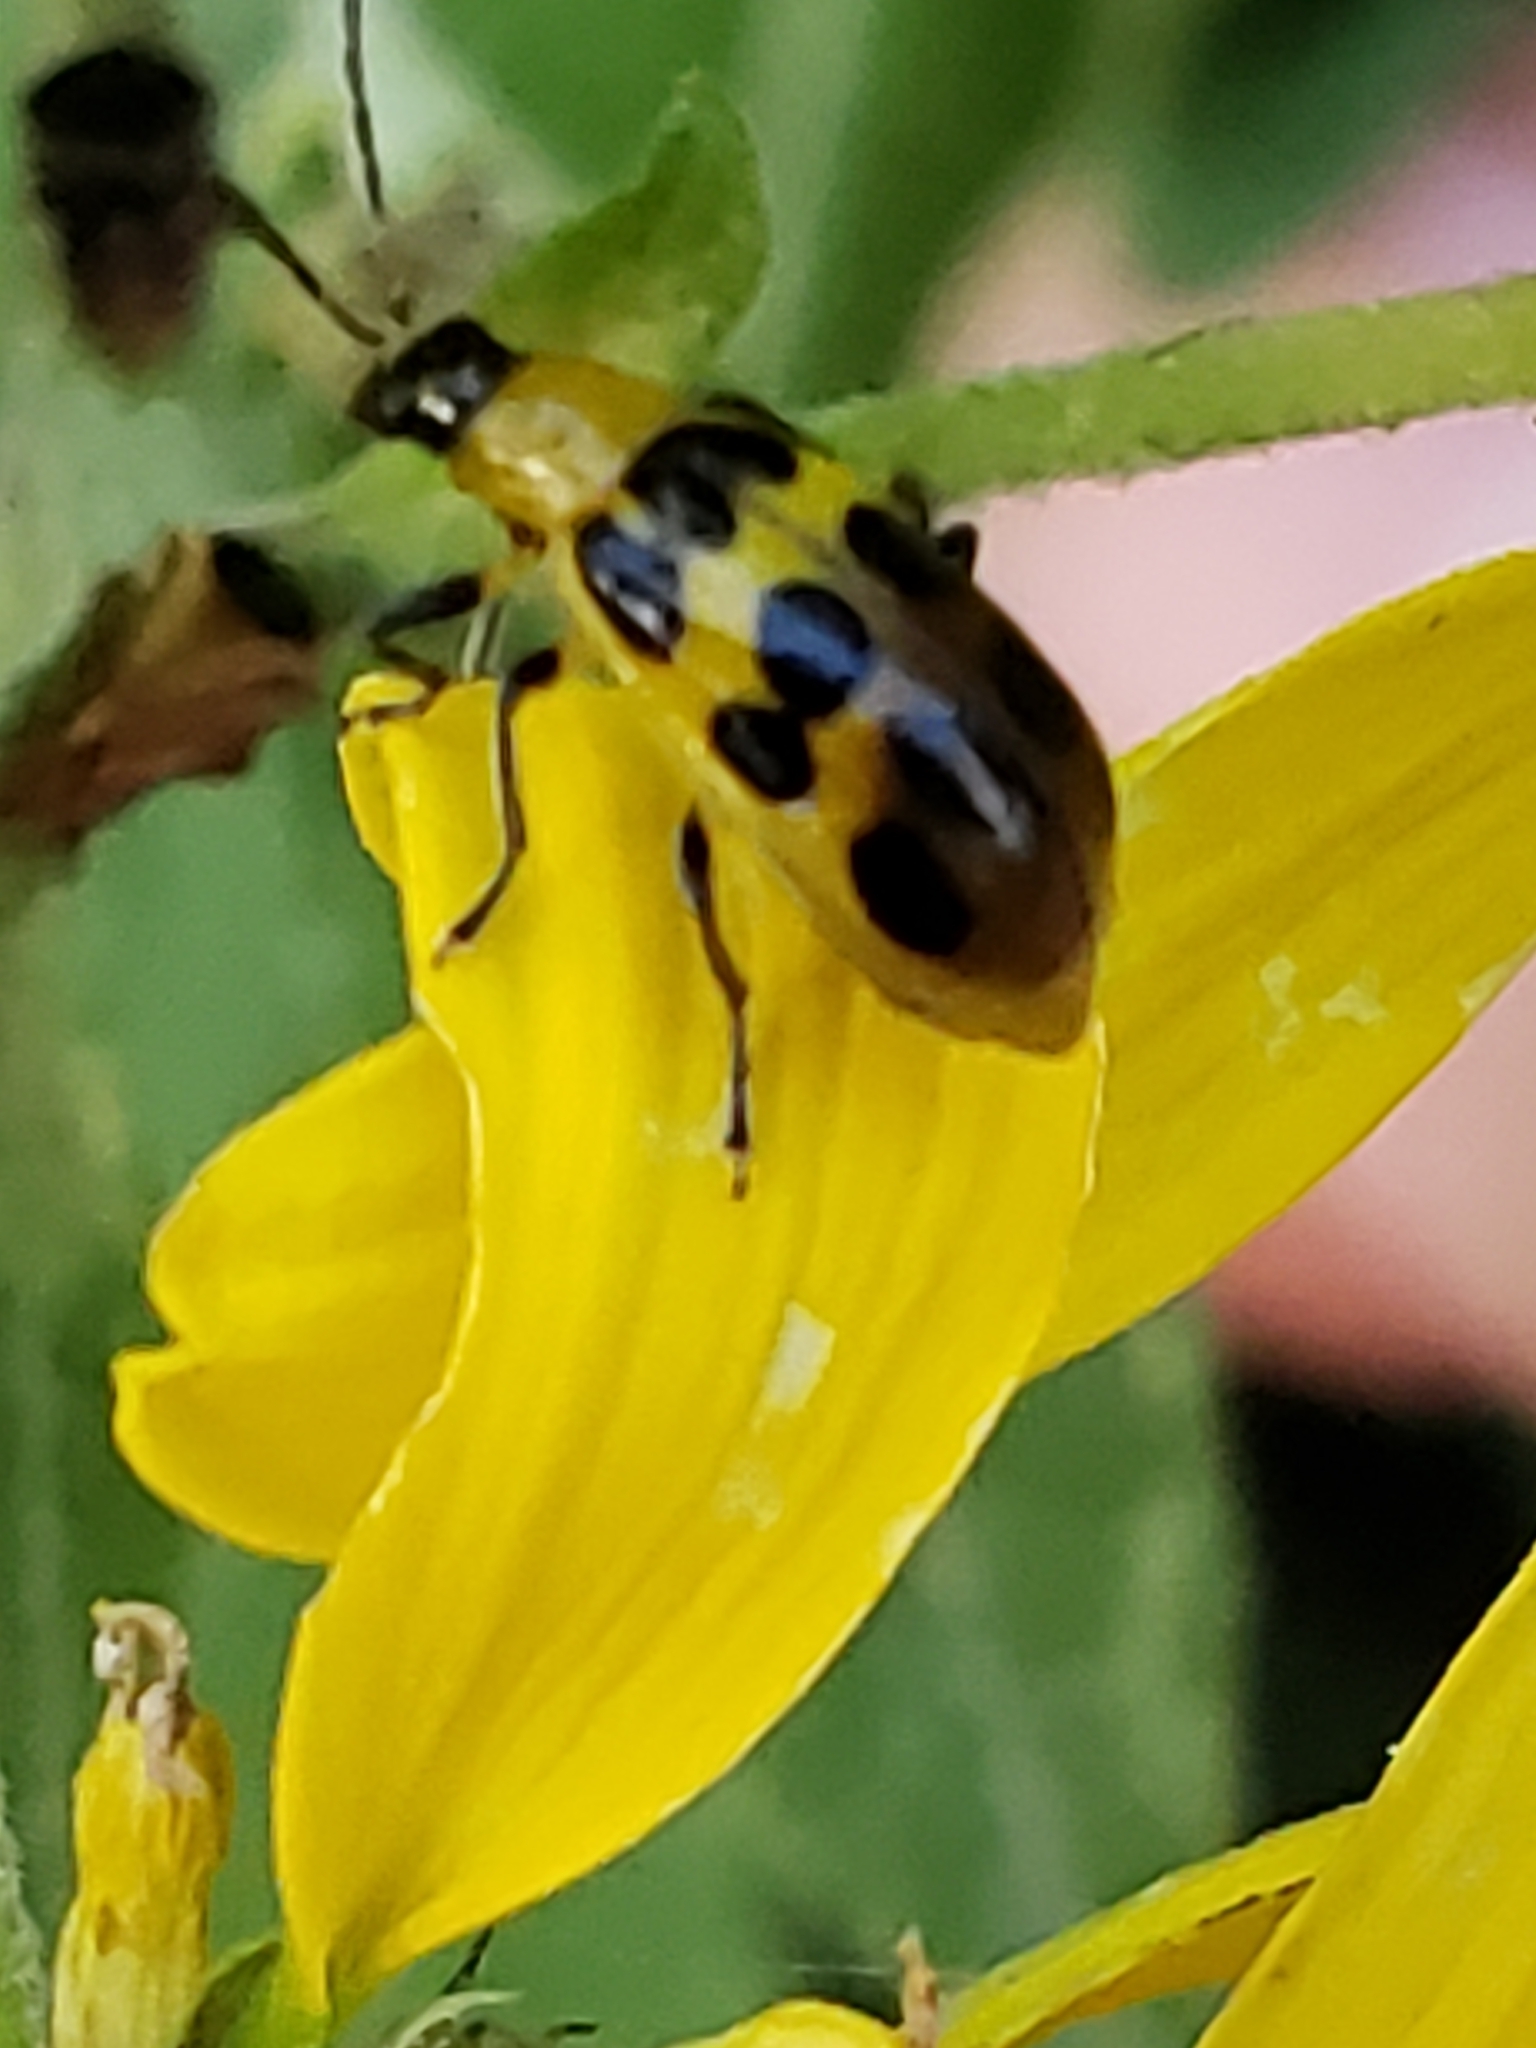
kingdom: Animalia
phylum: Arthropoda
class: Insecta
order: Coleoptera
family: Chrysomelidae
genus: Diabrotica
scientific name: Diabrotica undecimpunctata
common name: Spotted cucumber beetle
